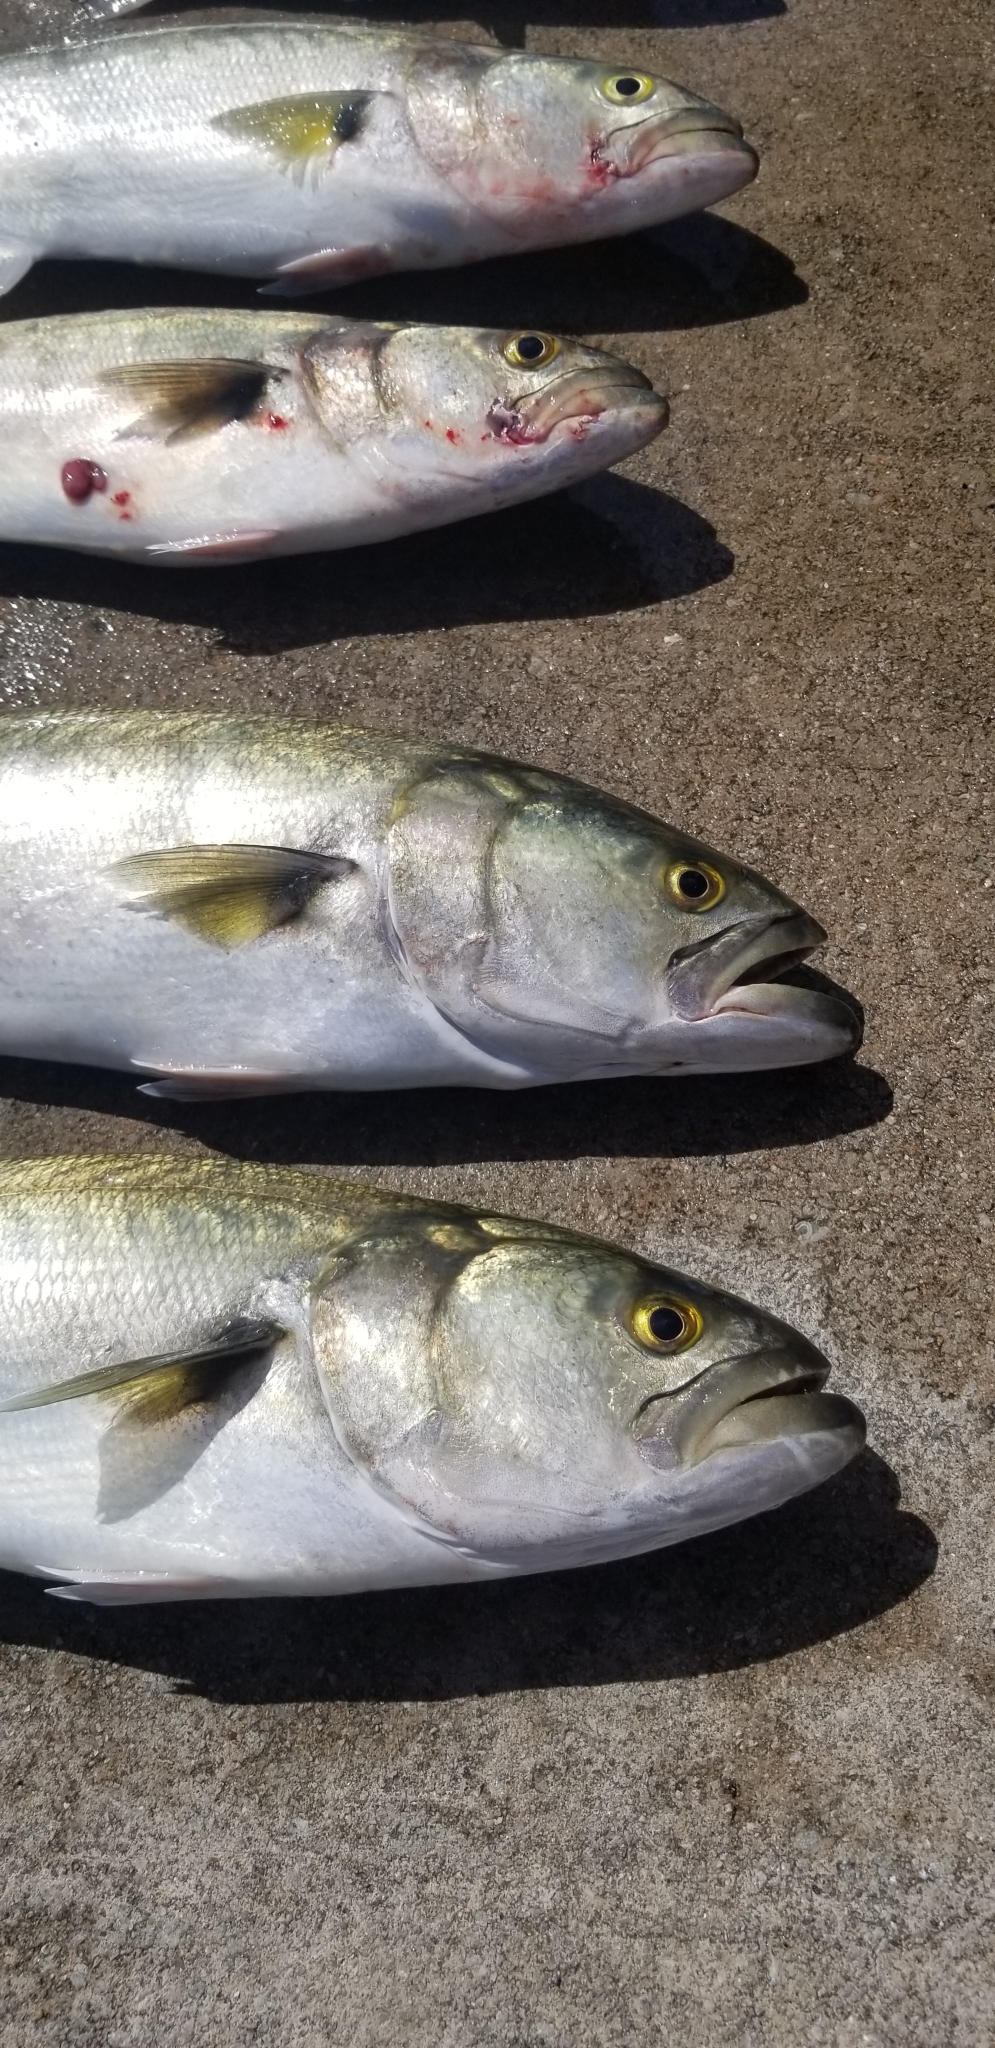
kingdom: Animalia
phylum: Chordata
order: Perciformes
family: Pomatomidae
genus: Pomatomus
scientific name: Pomatomus saltatrix
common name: Bluefish
